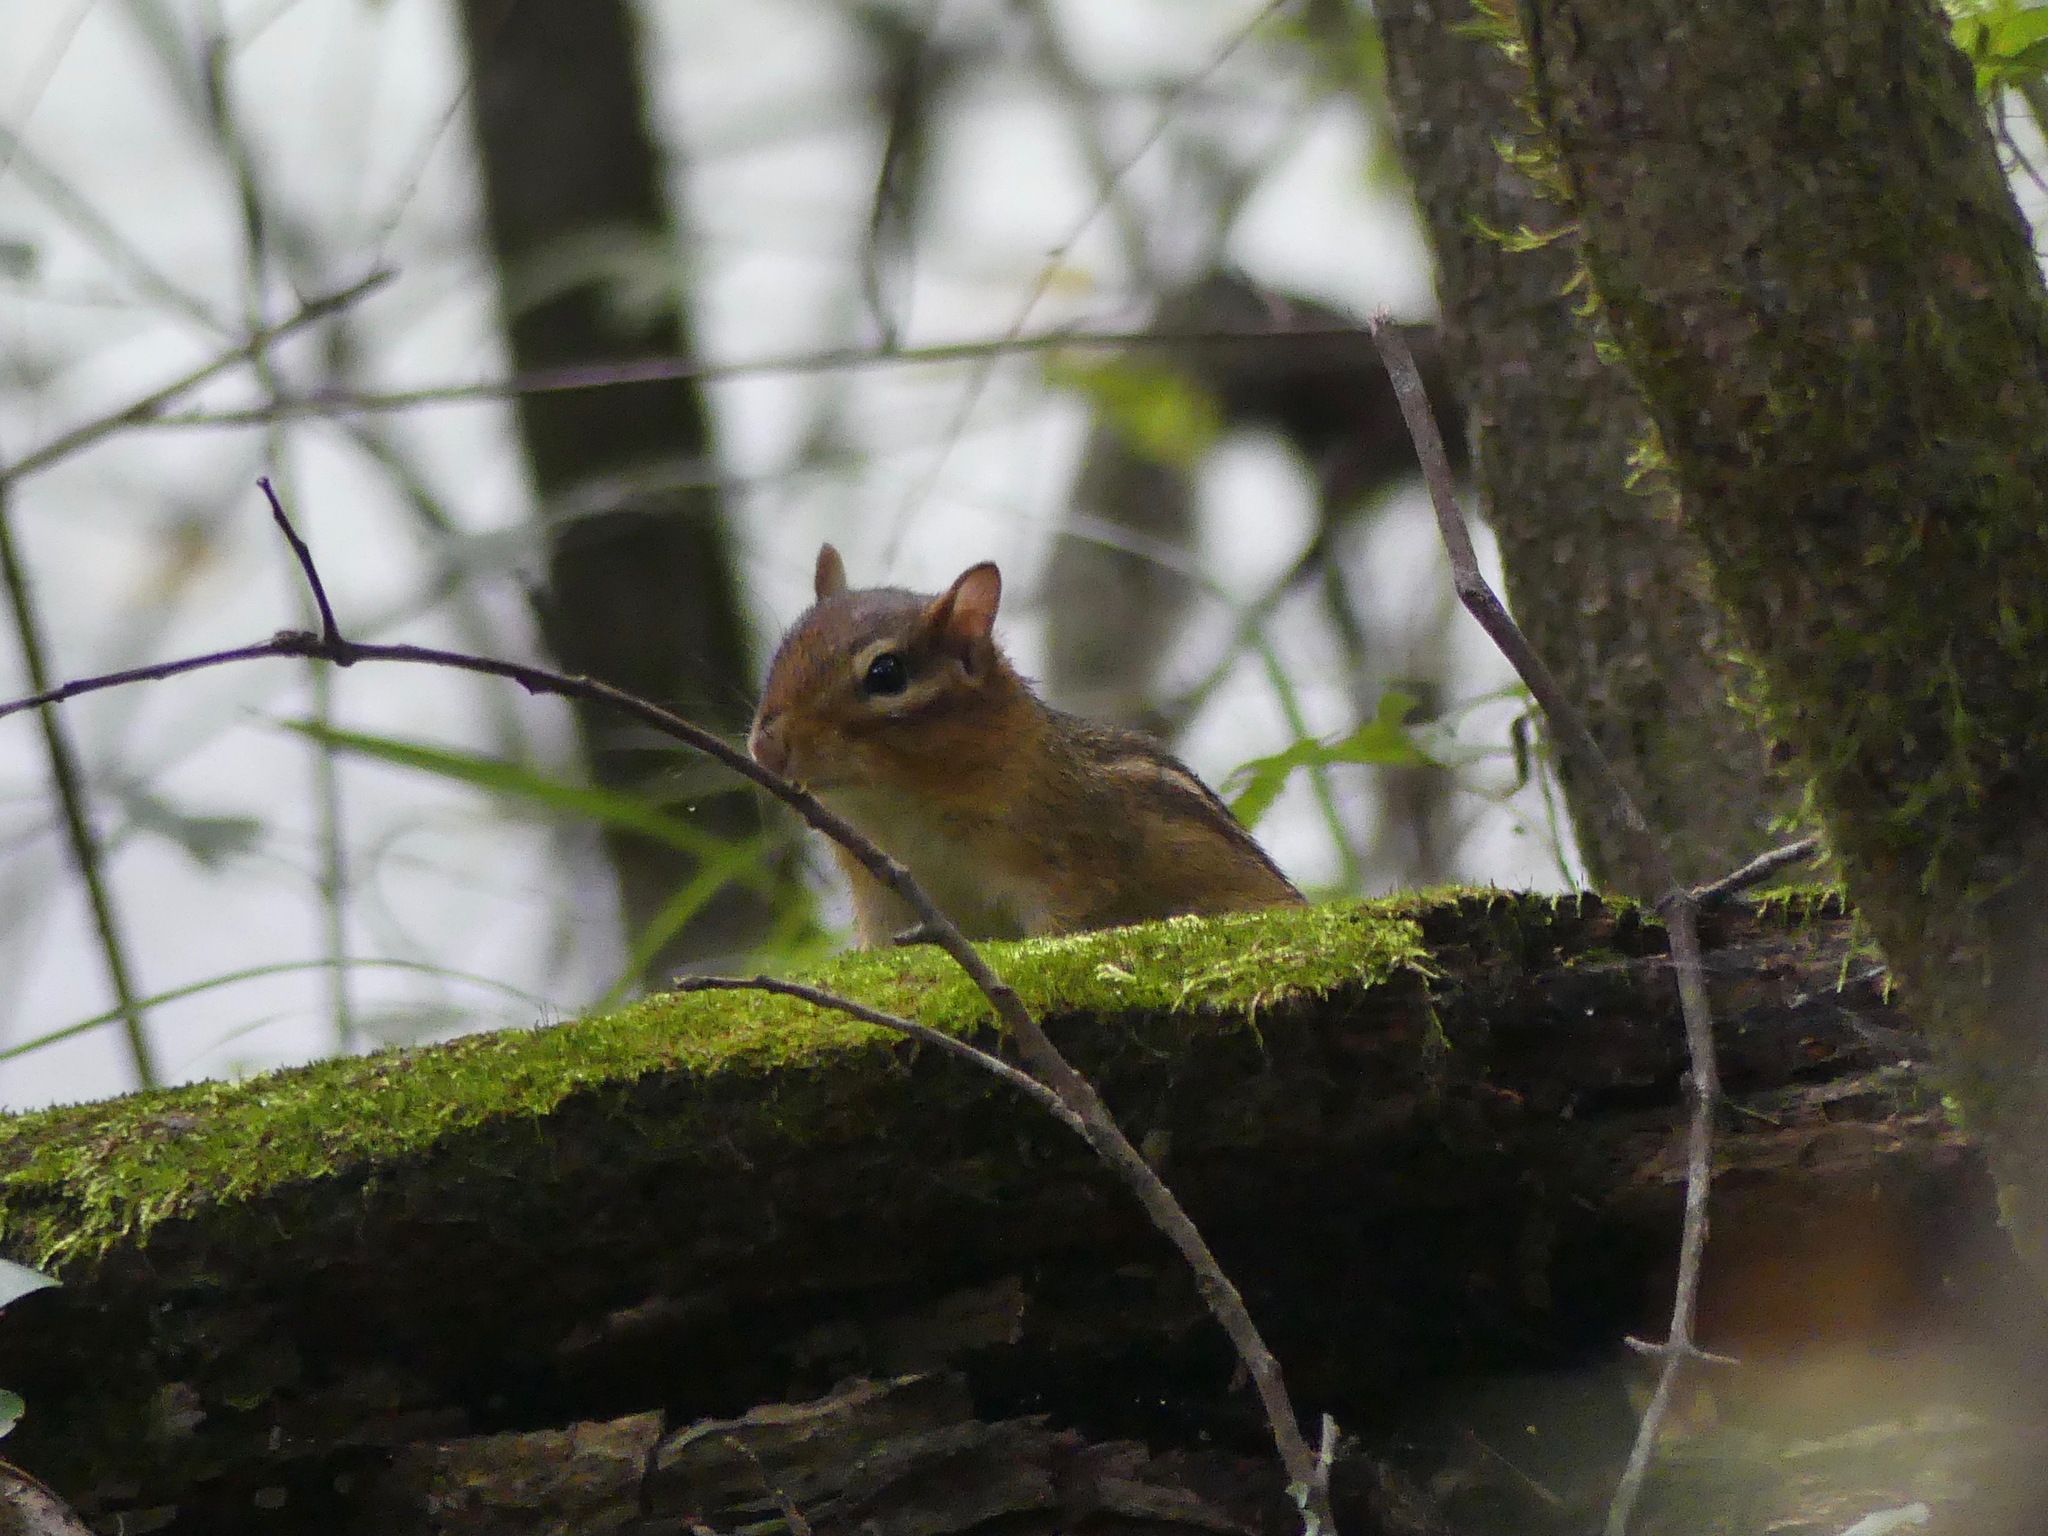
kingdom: Animalia
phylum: Chordata
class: Mammalia
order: Rodentia
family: Sciuridae
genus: Tamias
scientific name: Tamias striatus
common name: Eastern chipmunk
